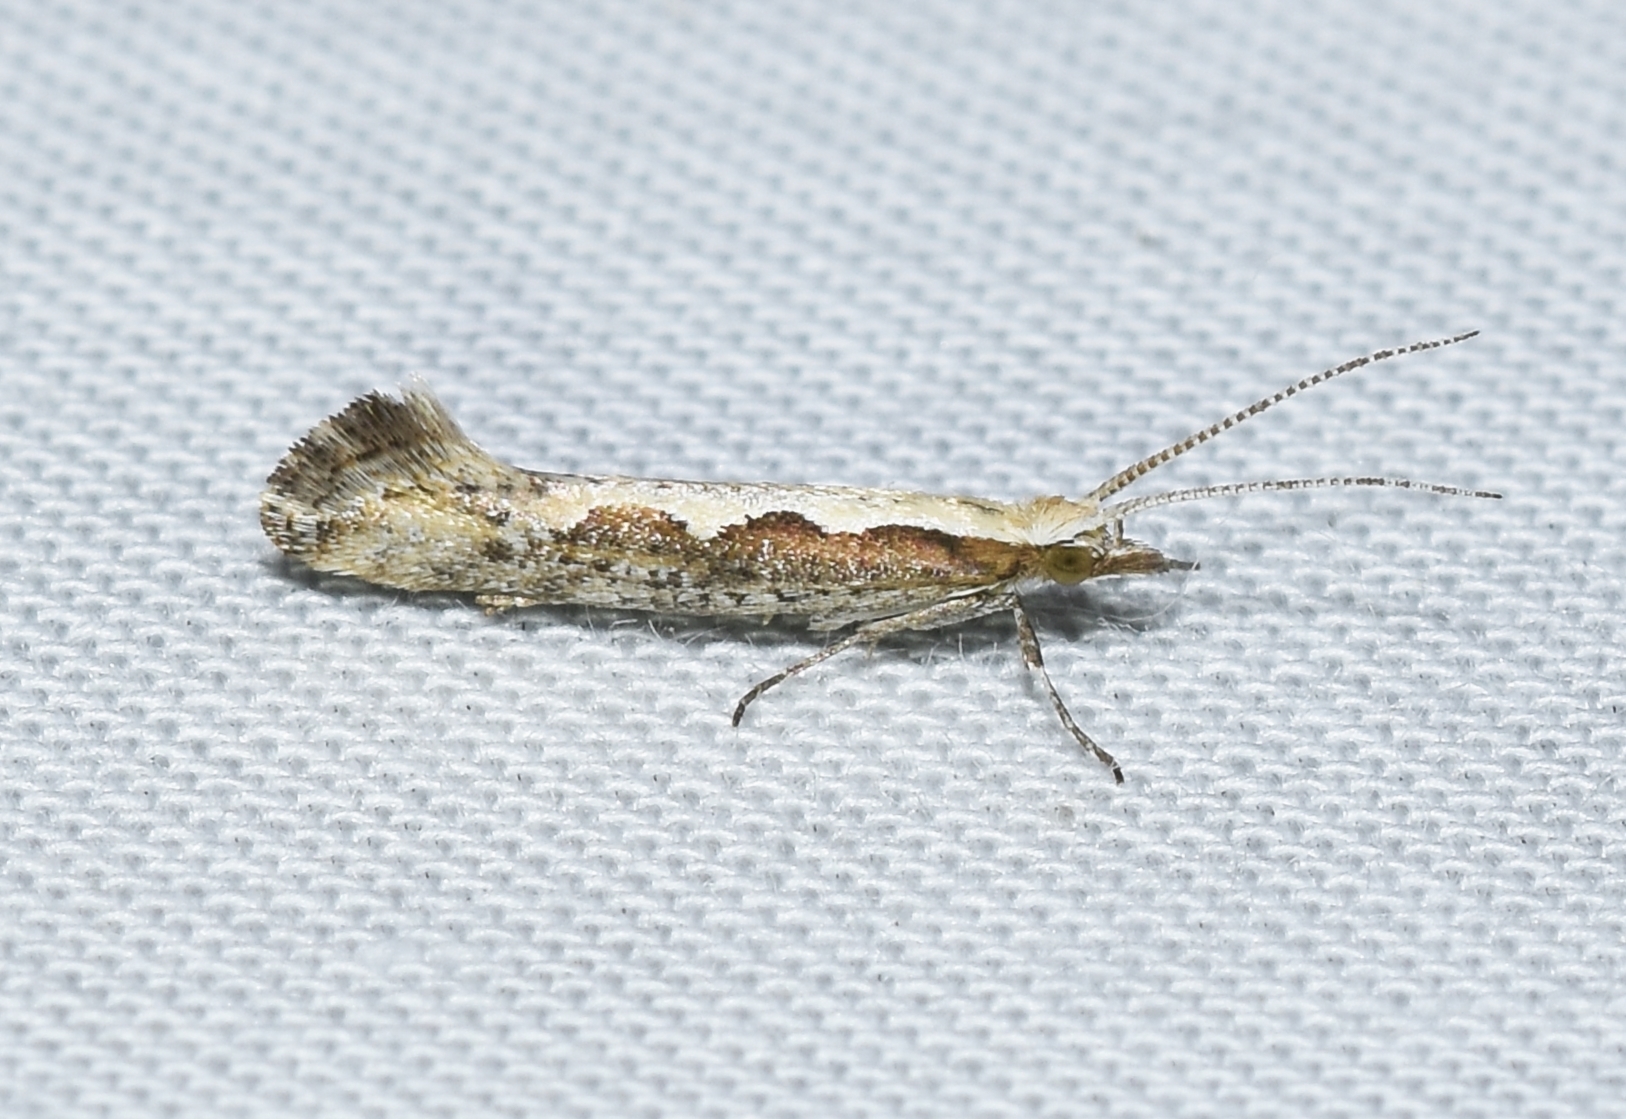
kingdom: Animalia
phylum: Arthropoda
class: Insecta
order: Lepidoptera
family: Plutellidae
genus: Plutella
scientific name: Plutella xylostella
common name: Diamond-back moth
